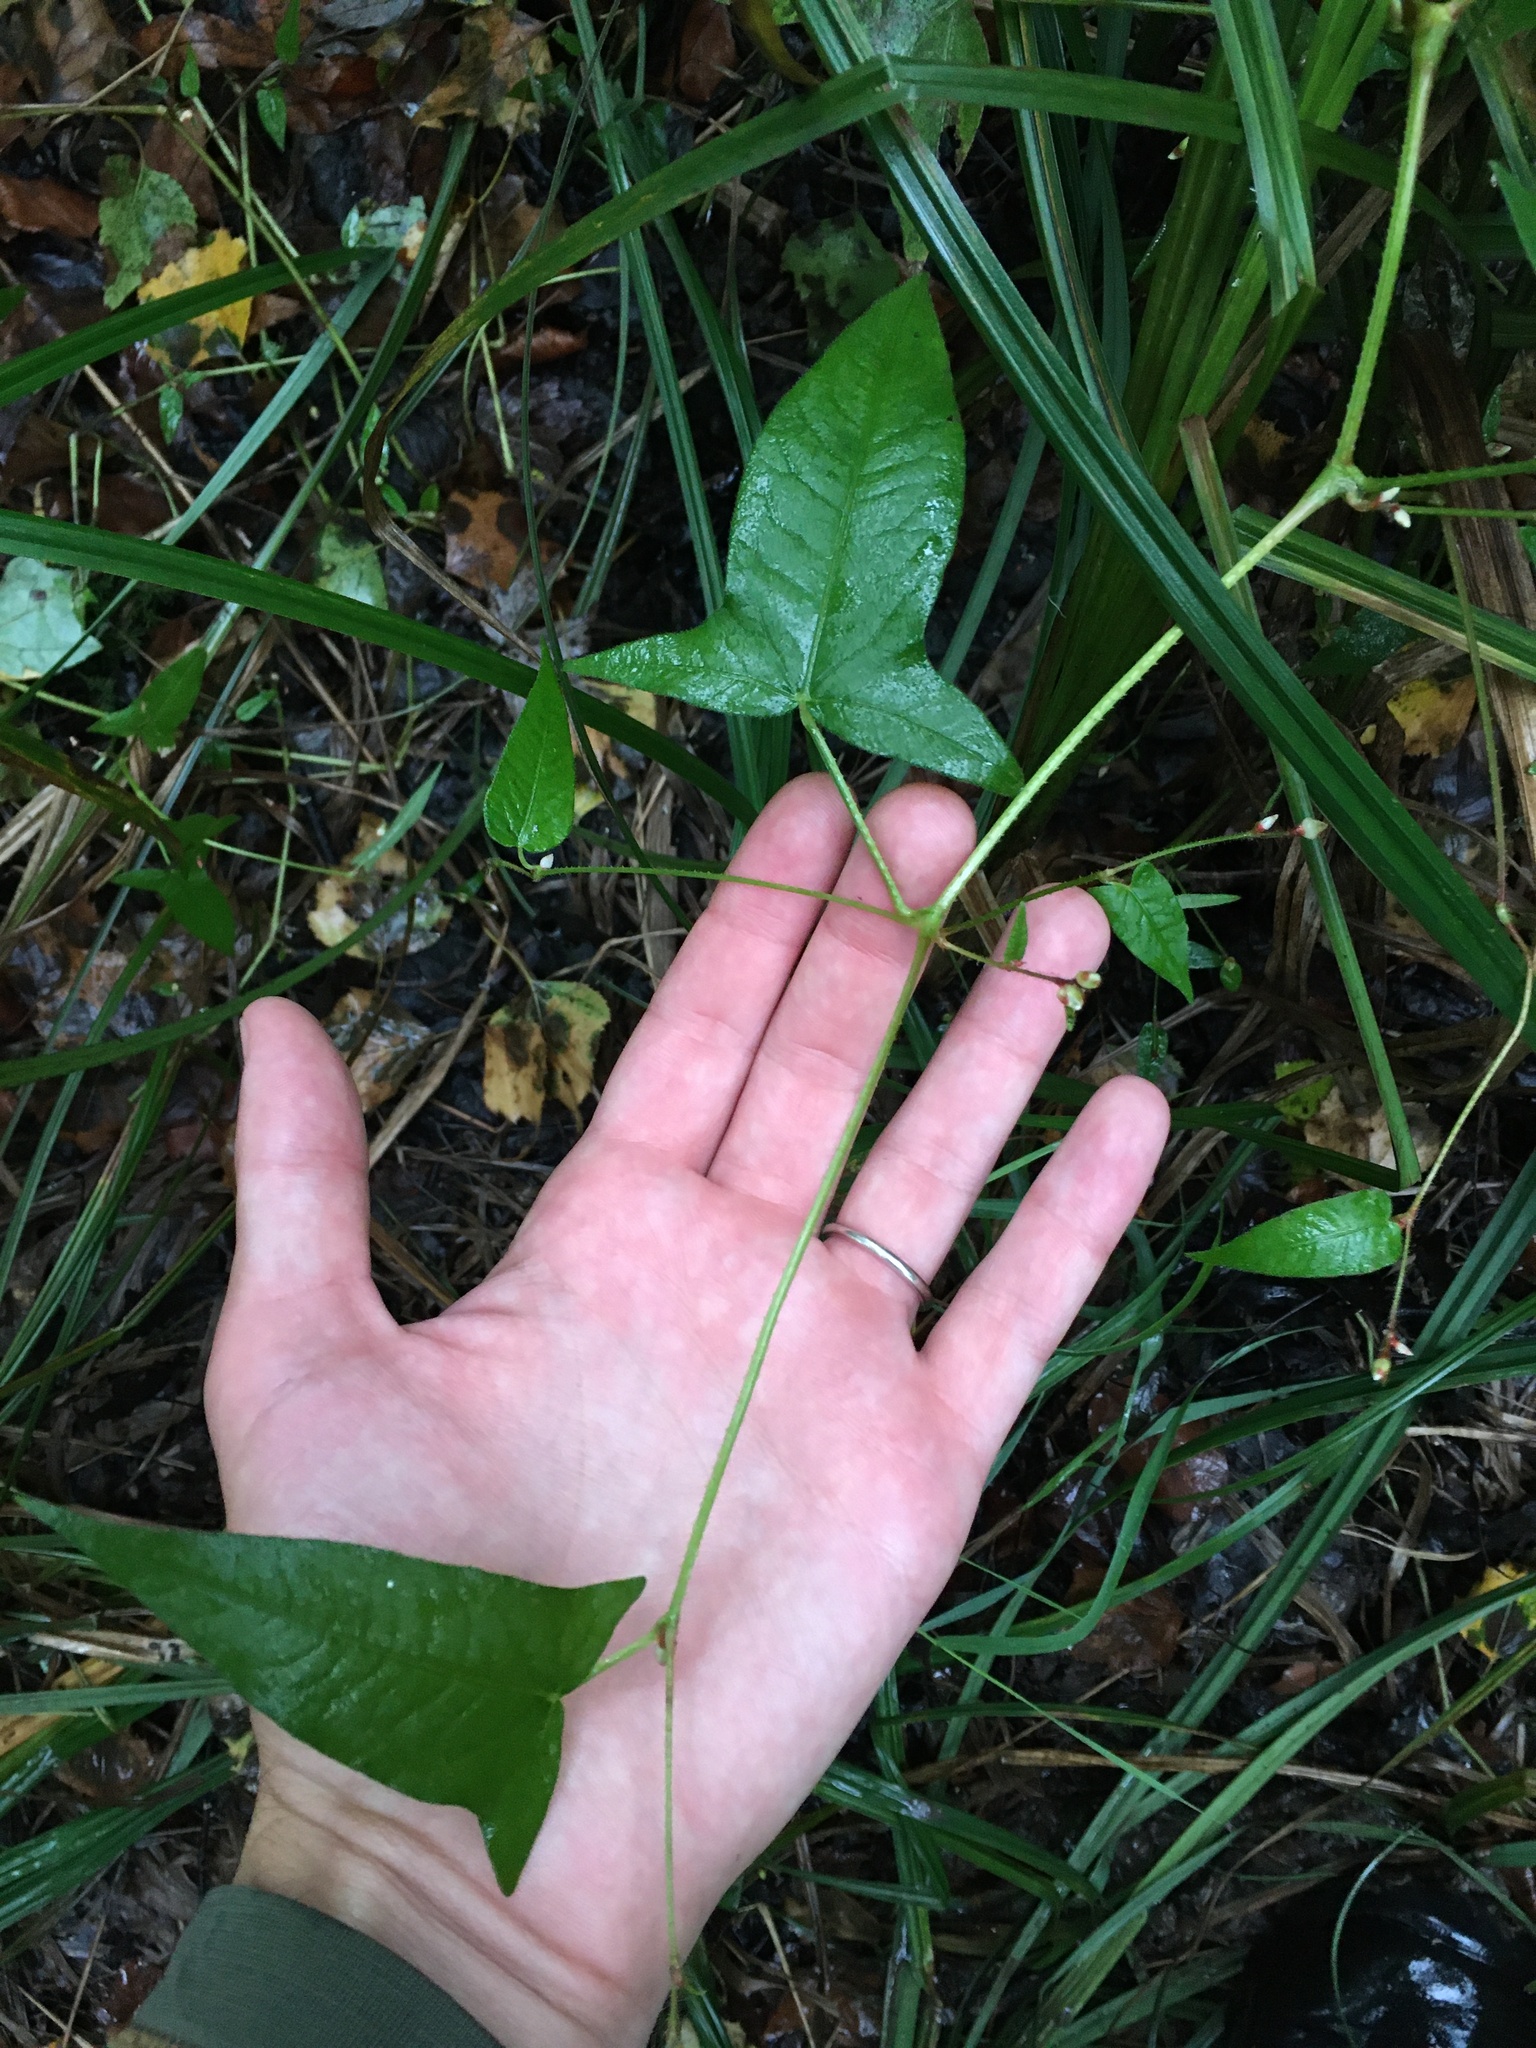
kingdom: Plantae
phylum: Tracheophyta
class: Magnoliopsida
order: Caryophyllales
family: Polygonaceae
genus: Persicaria
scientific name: Persicaria arifolia
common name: Halberd-leaved tear-thumb
